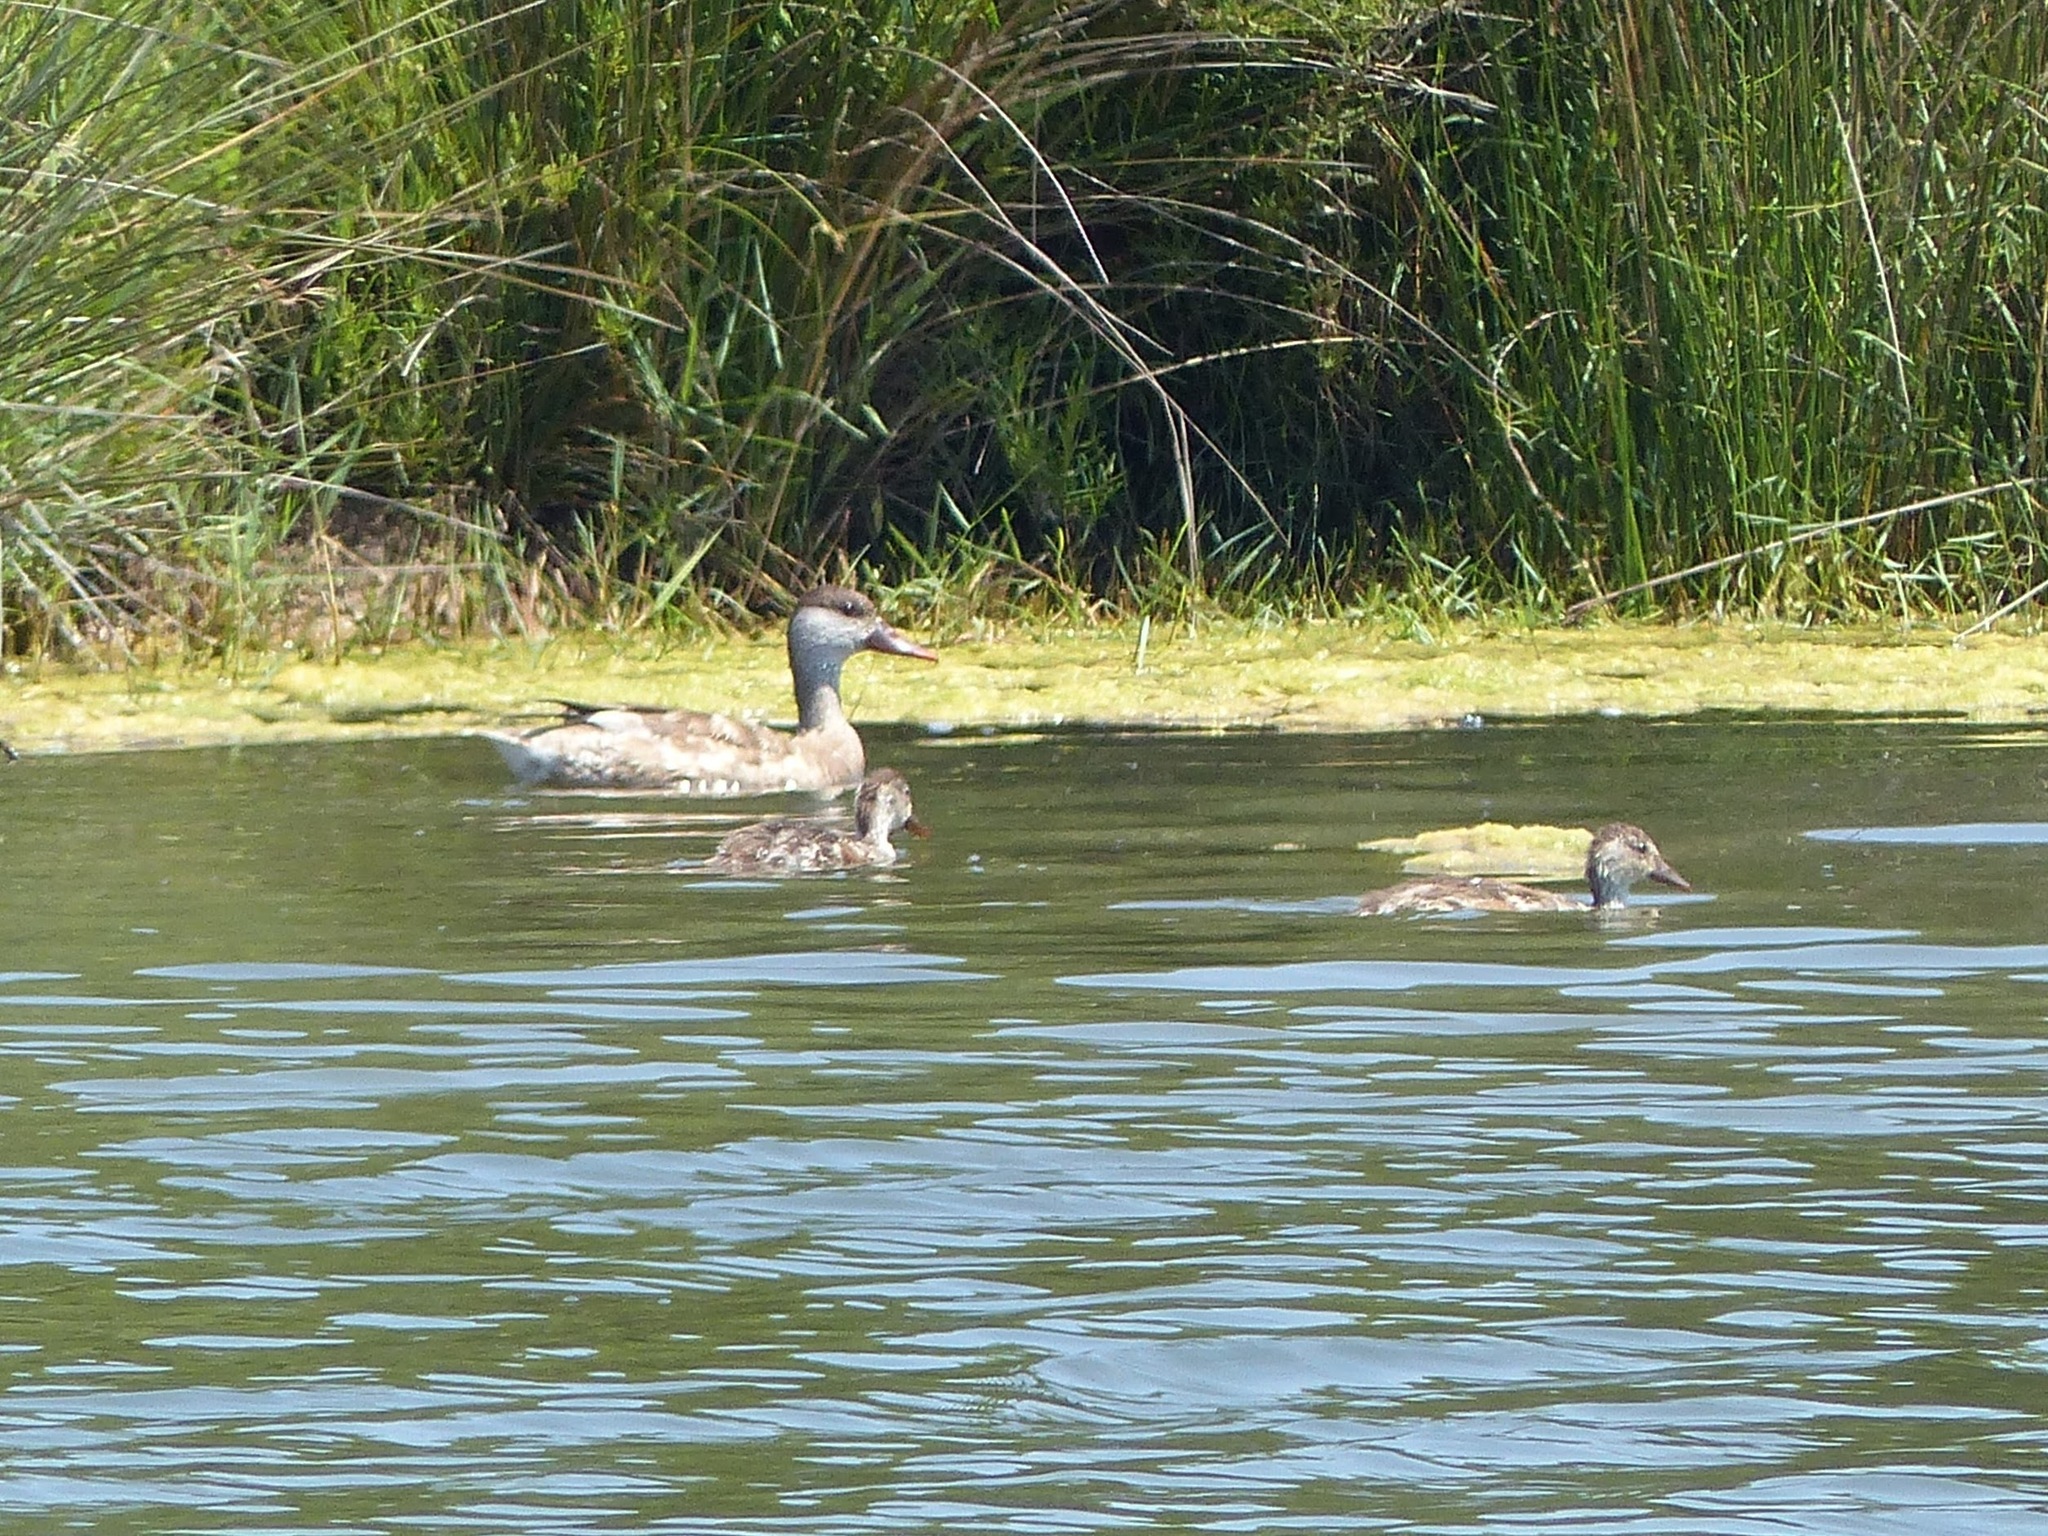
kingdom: Animalia
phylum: Chordata
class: Aves
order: Anseriformes
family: Anatidae
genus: Netta
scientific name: Netta rufina
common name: Red-crested pochard
